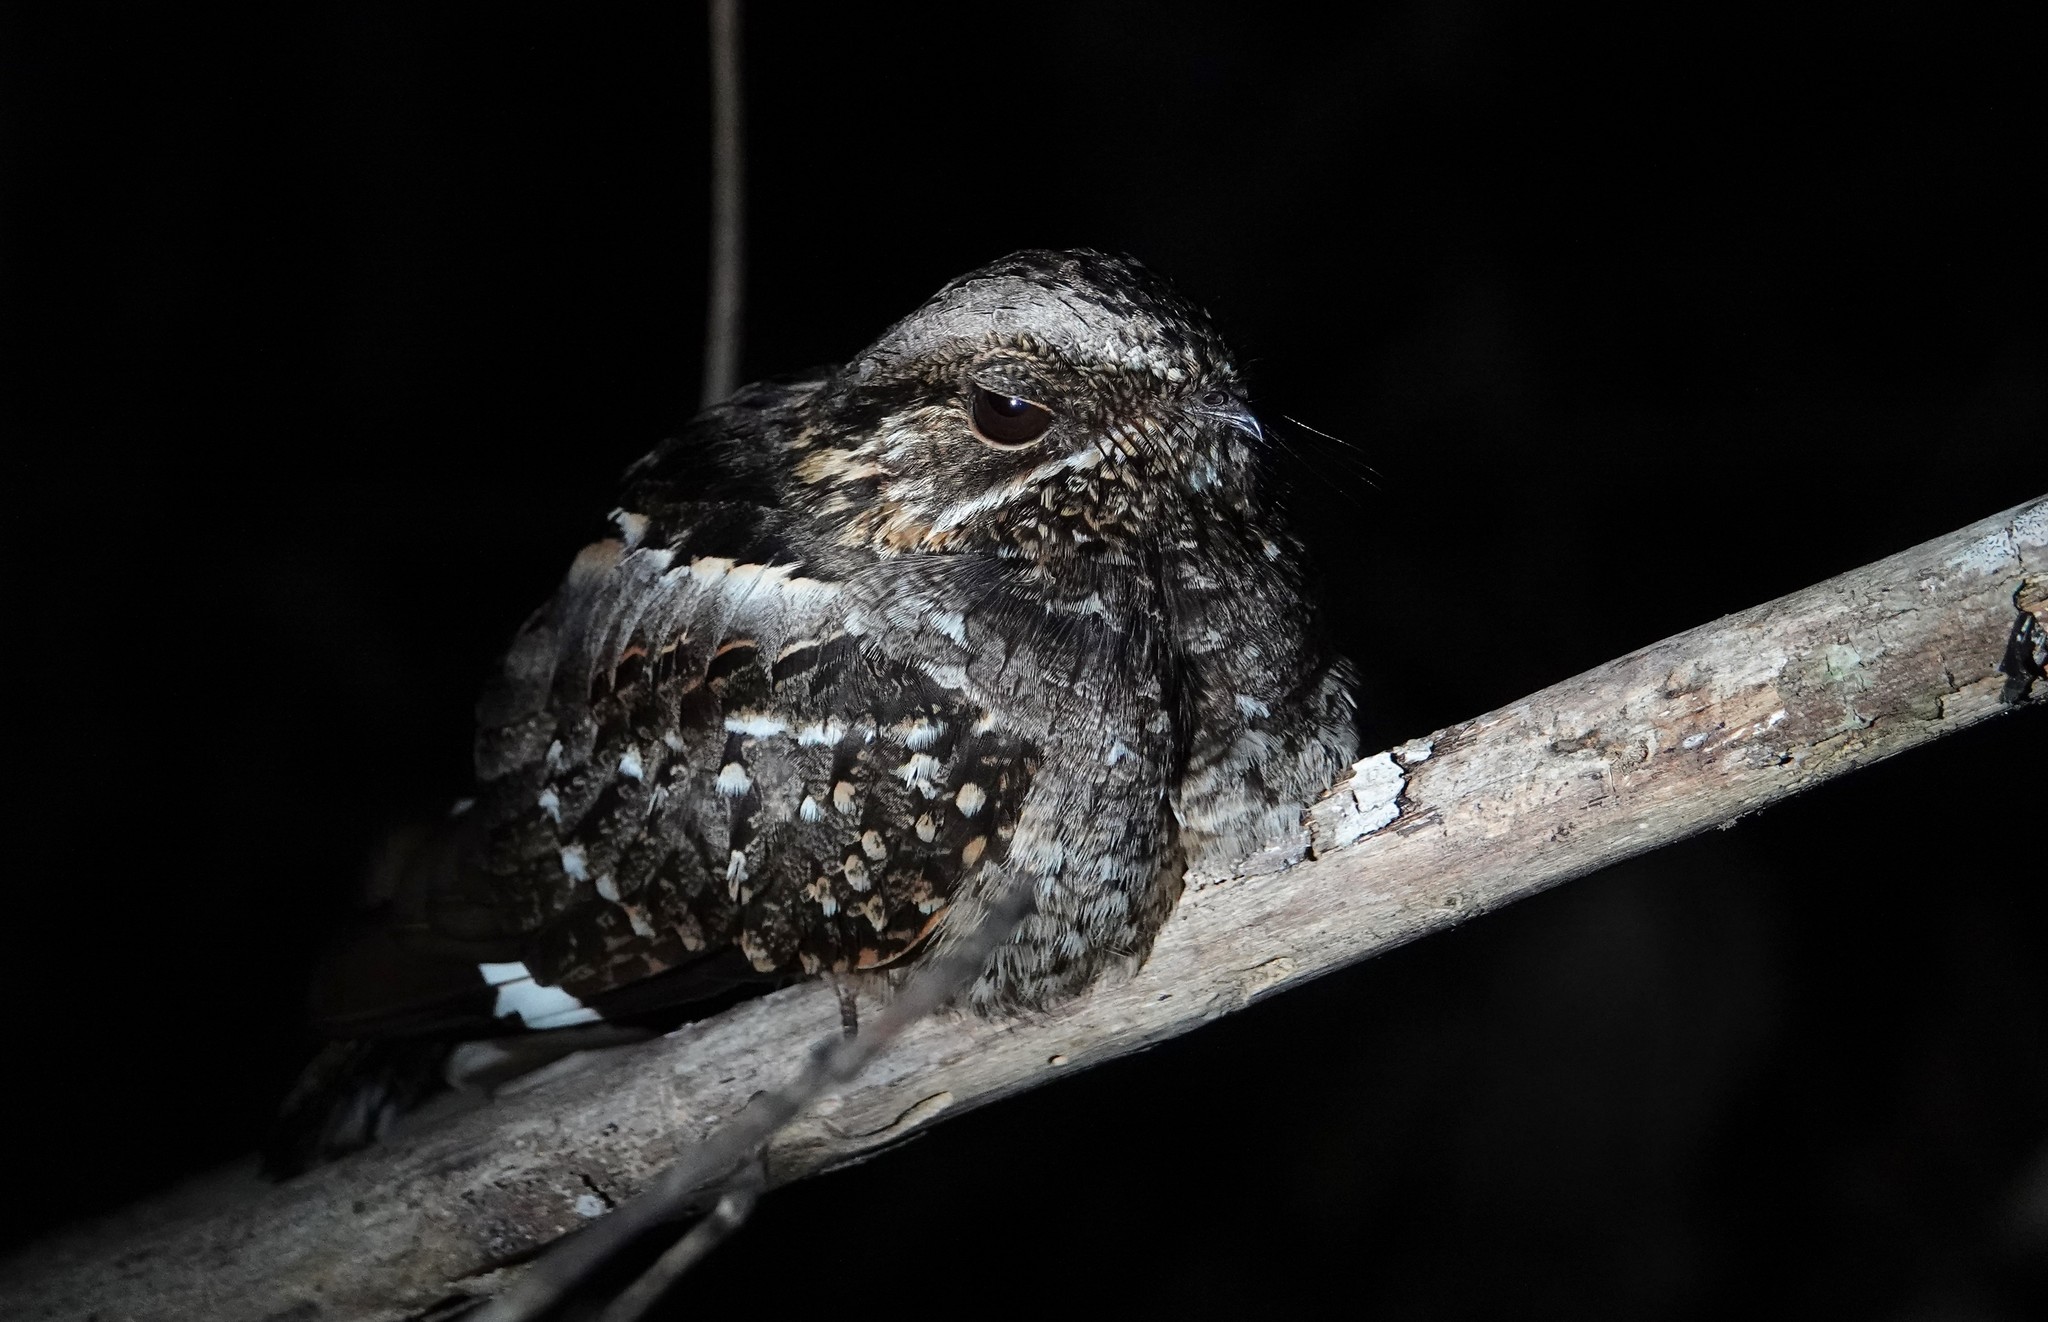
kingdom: Animalia
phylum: Chordata
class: Aves
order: Caprimulgiformes
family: Caprimulgidae
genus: Setopagis
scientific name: Setopagis parvula
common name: Little nightjar
